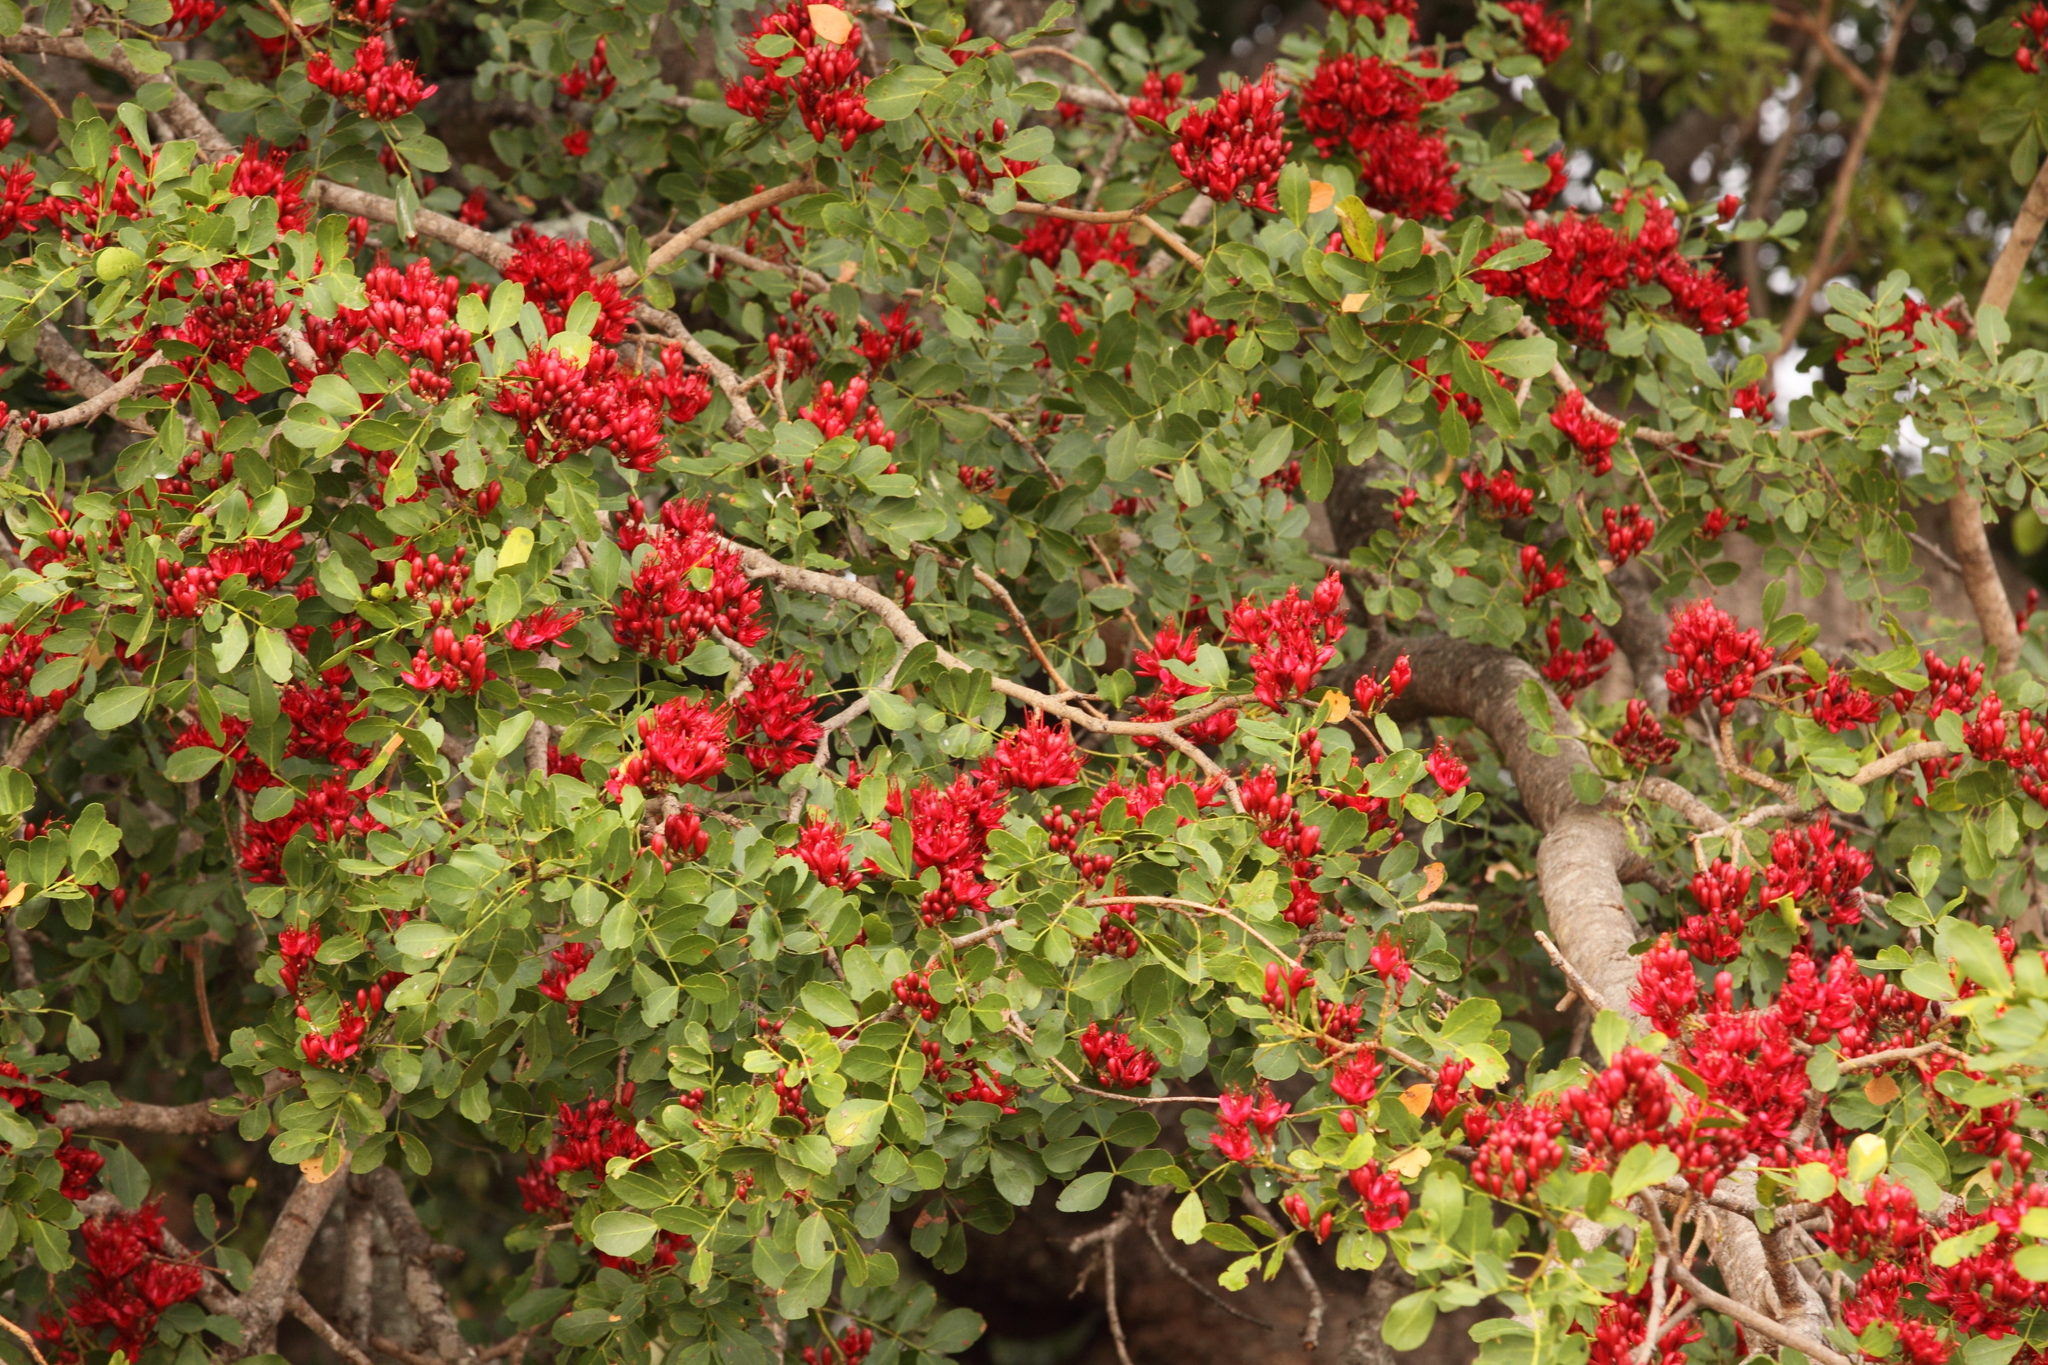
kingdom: Plantae
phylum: Tracheophyta
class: Magnoliopsida
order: Fabales
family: Fabaceae
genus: Schotia
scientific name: Schotia brachypetala
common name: Weeping boer-bean
